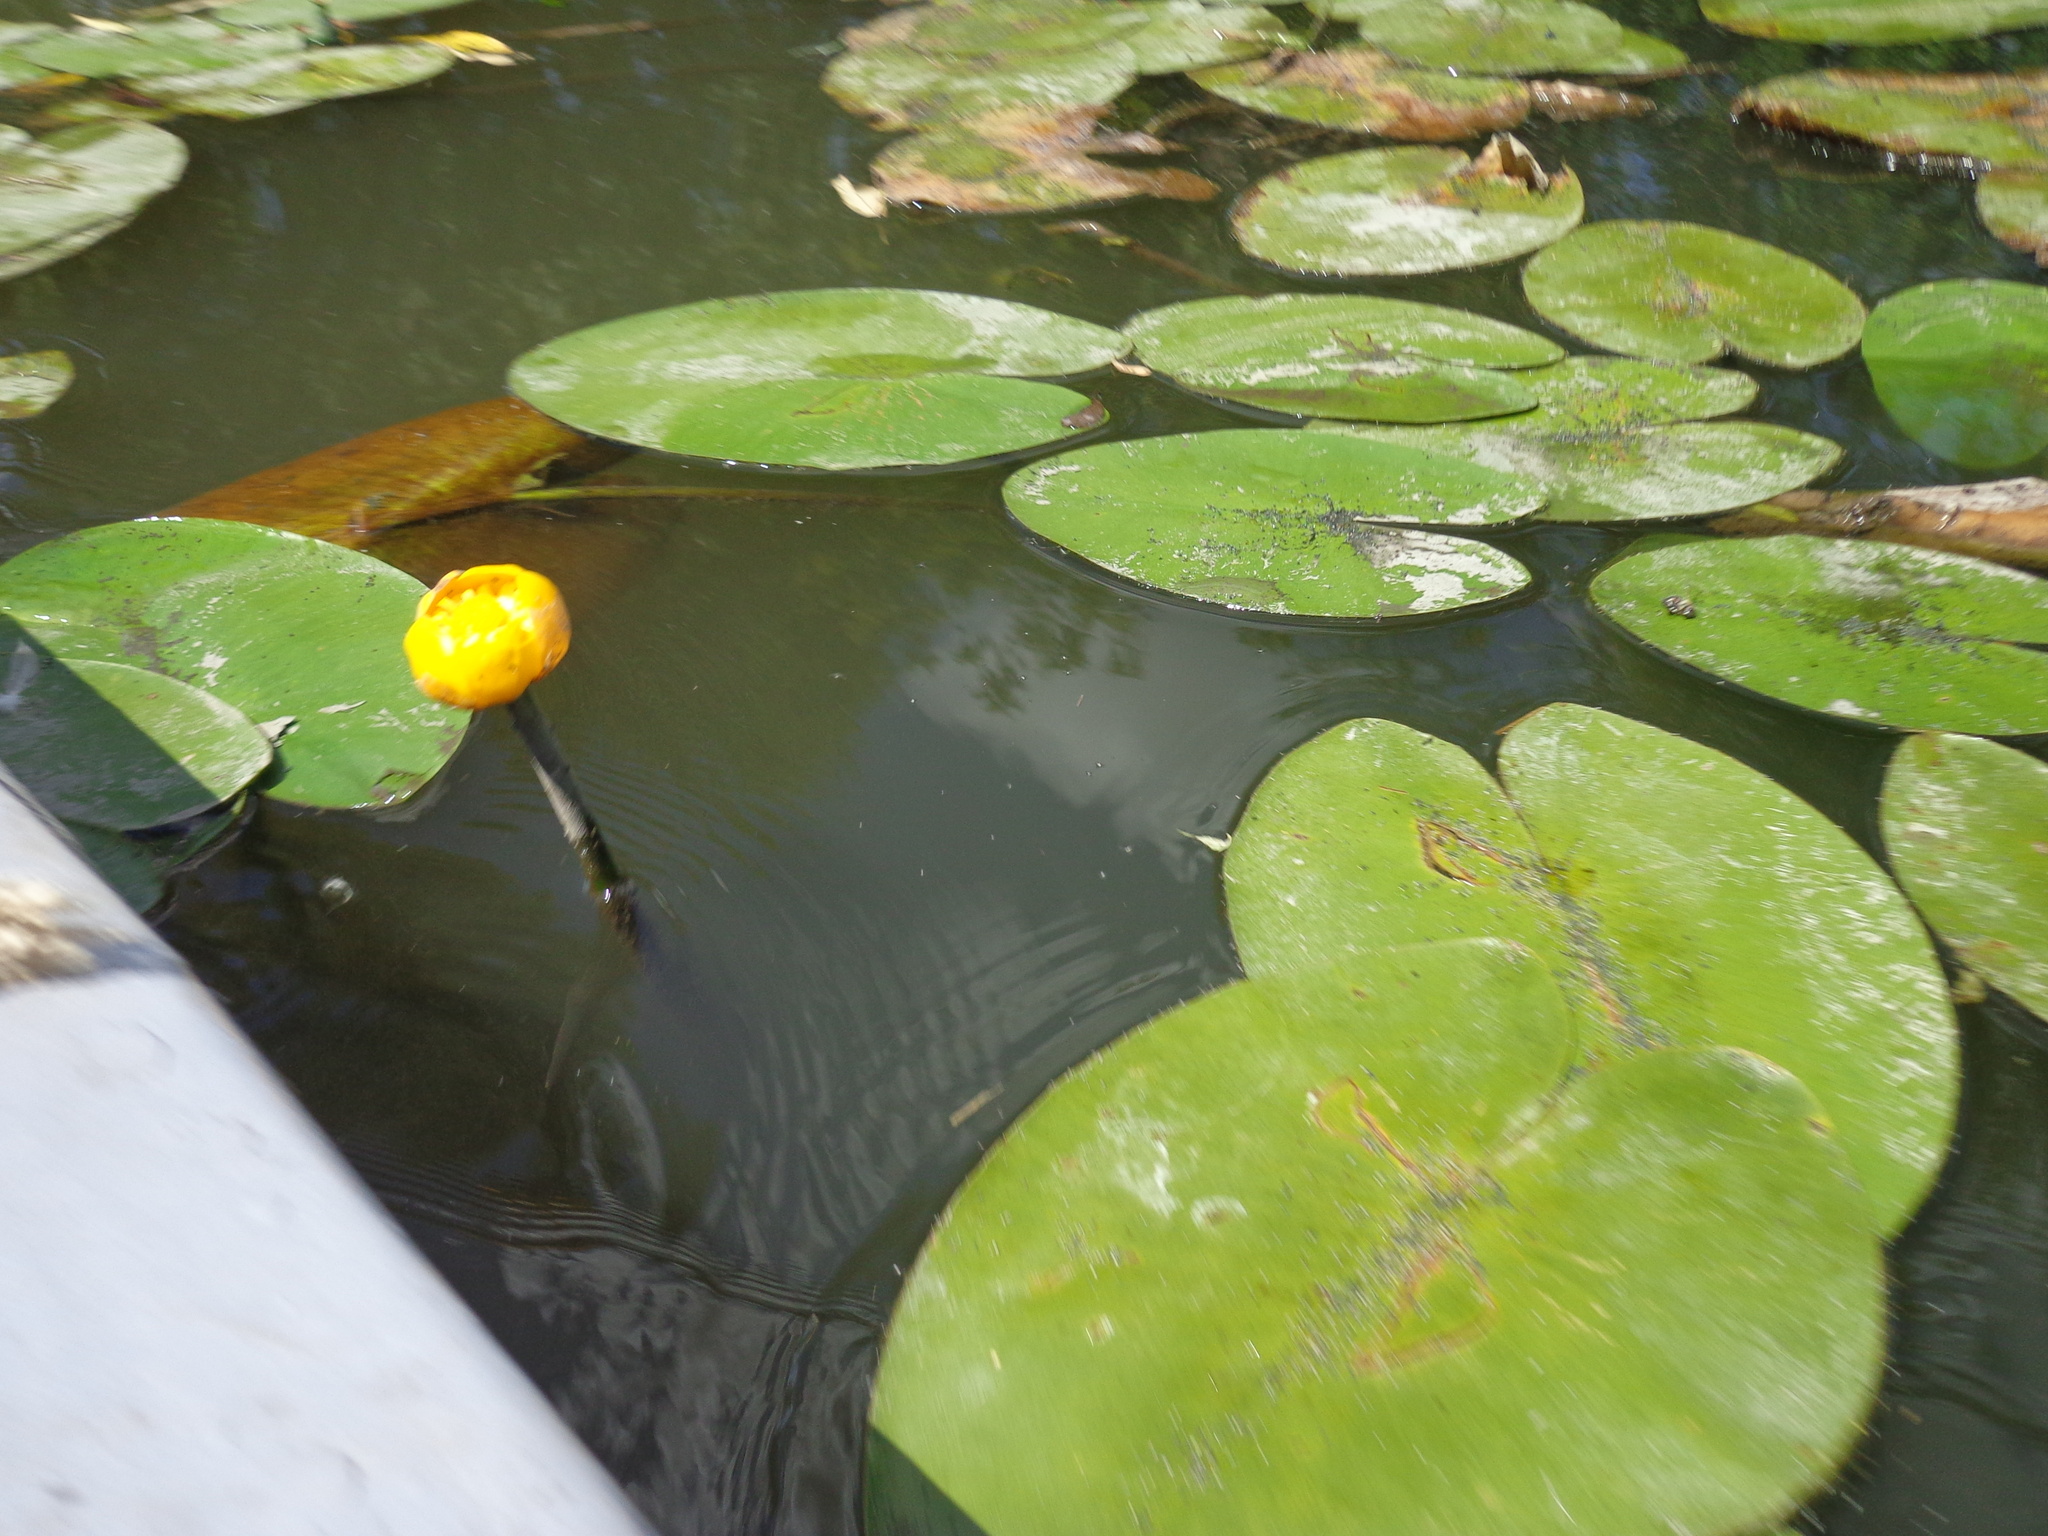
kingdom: Plantae
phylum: Tracheophyta
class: Magnoliopsida
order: Nymphaeales
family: Nymphaeaceae
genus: Nuphar
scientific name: Nuphar lutea
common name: Yellow water-lily
